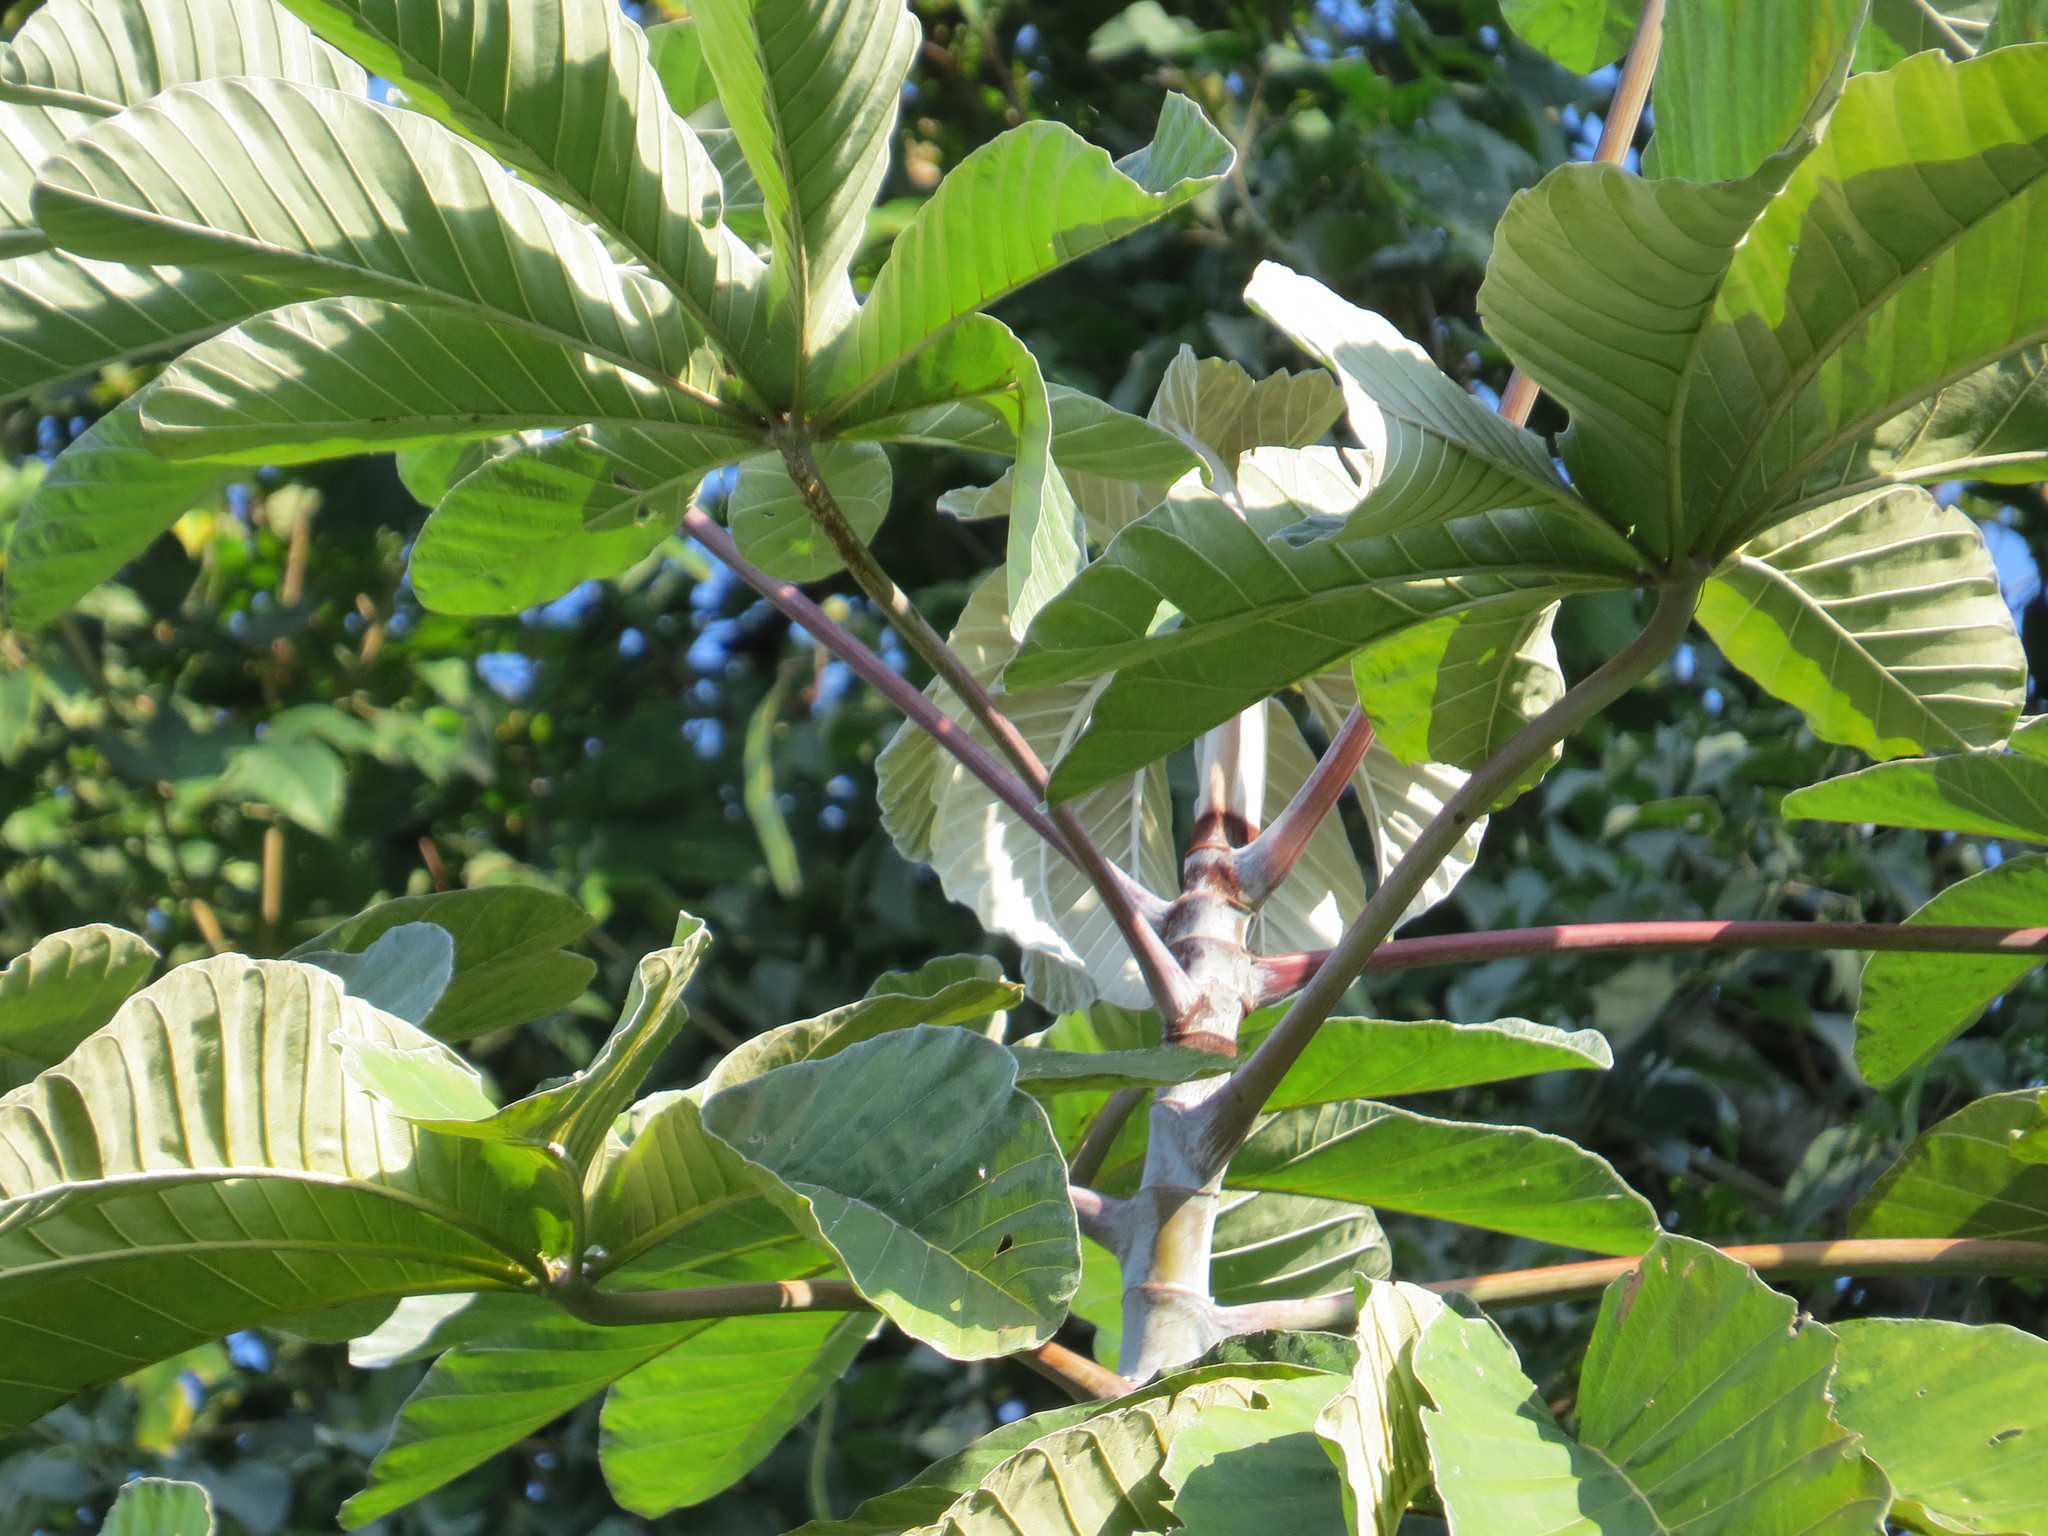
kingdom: Plantae
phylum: Tracheophyta
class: Magnoliopsida
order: Rosales
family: Urticaceae
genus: Cecropia
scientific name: Cecropia hololeuca
